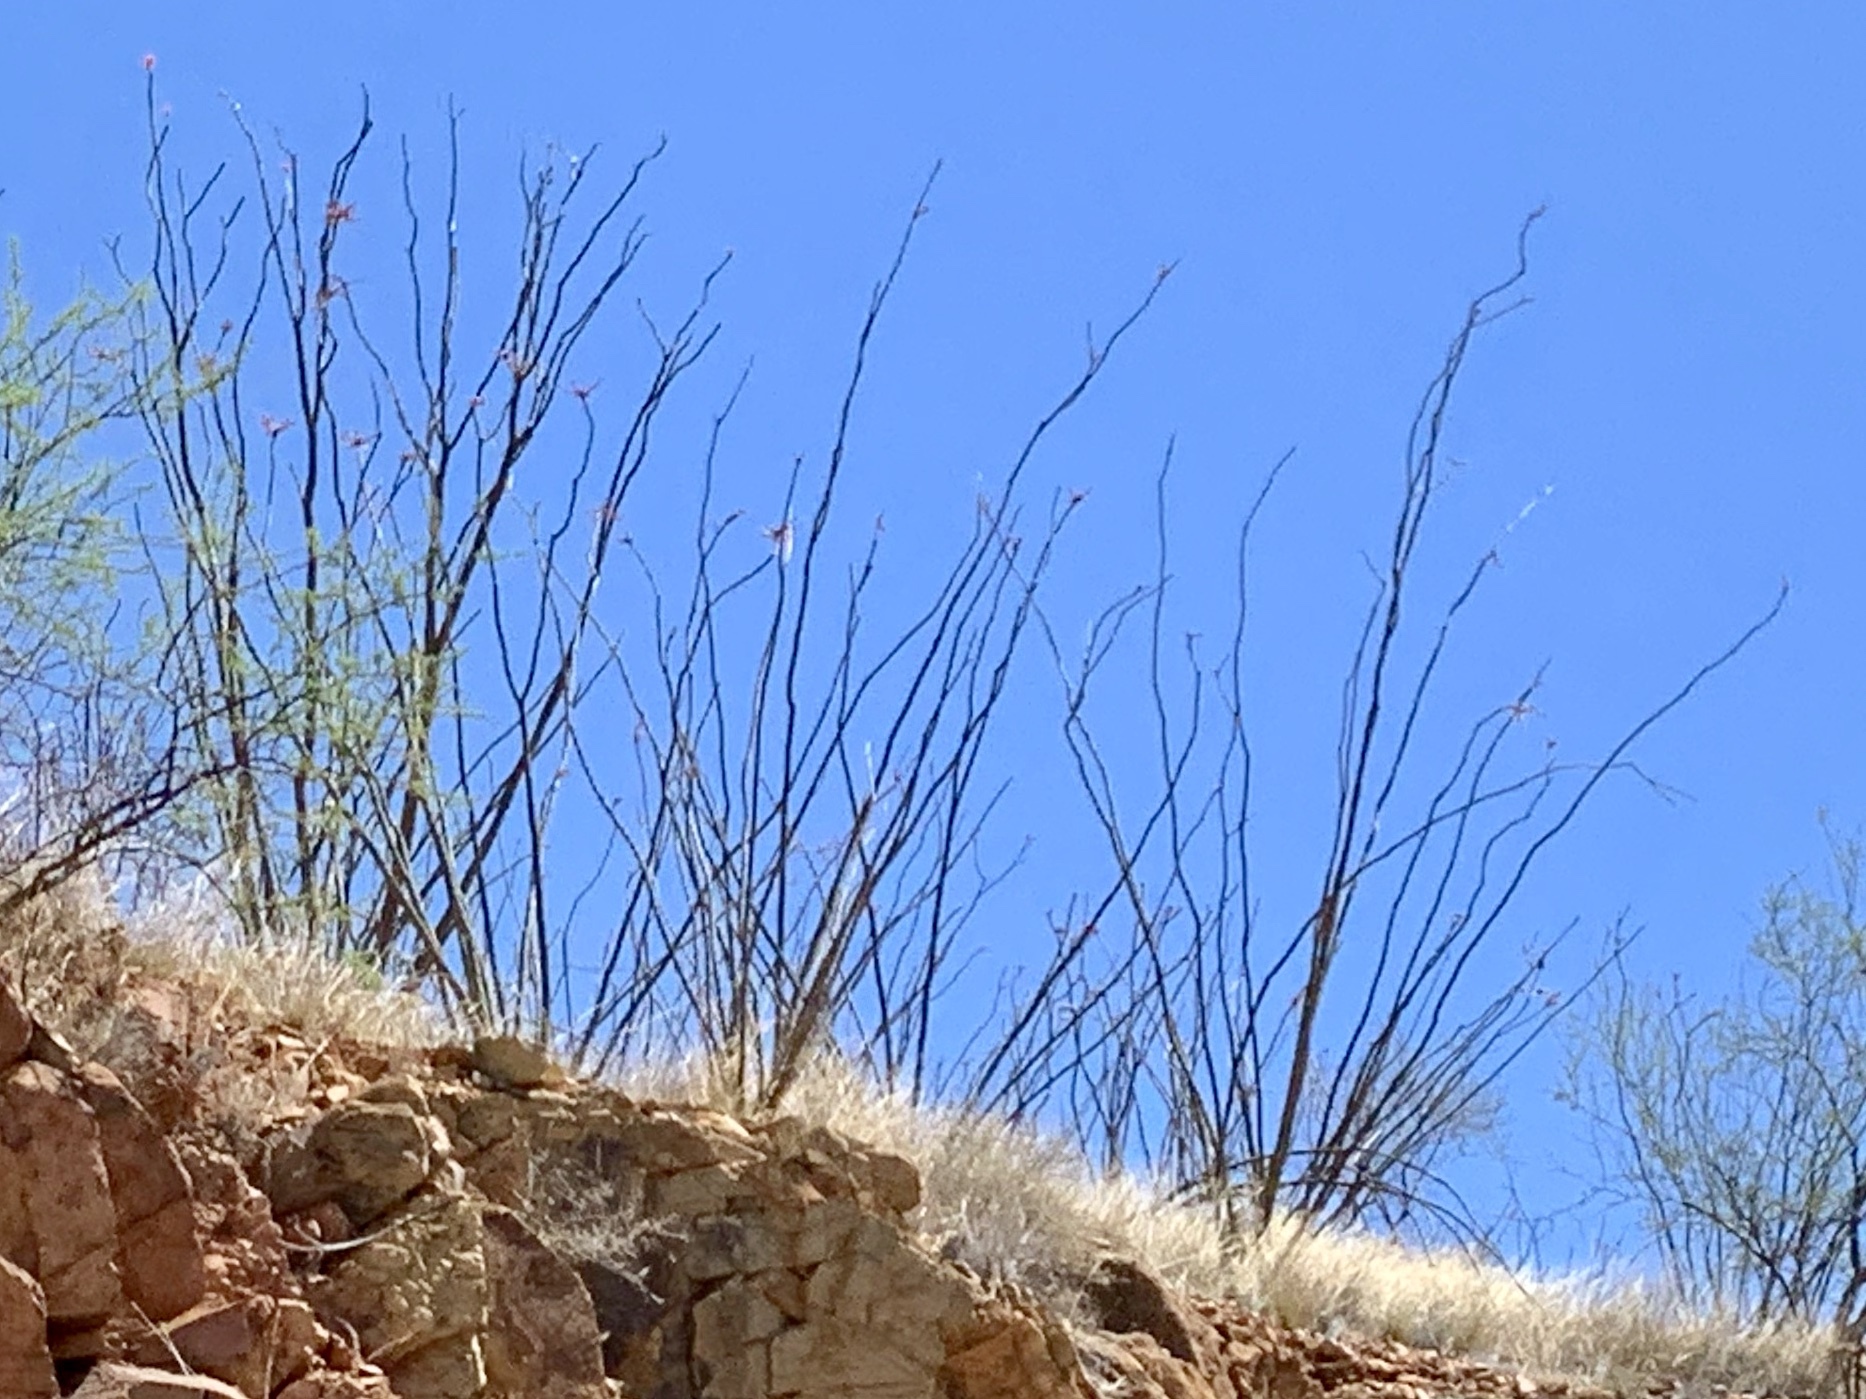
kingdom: Plantae
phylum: Tracheophyta
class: Magnoliopsida
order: Ericales
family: Fouquieriaceae
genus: Fouquieria
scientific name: Fouquieria splendens
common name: Vine-cactus
